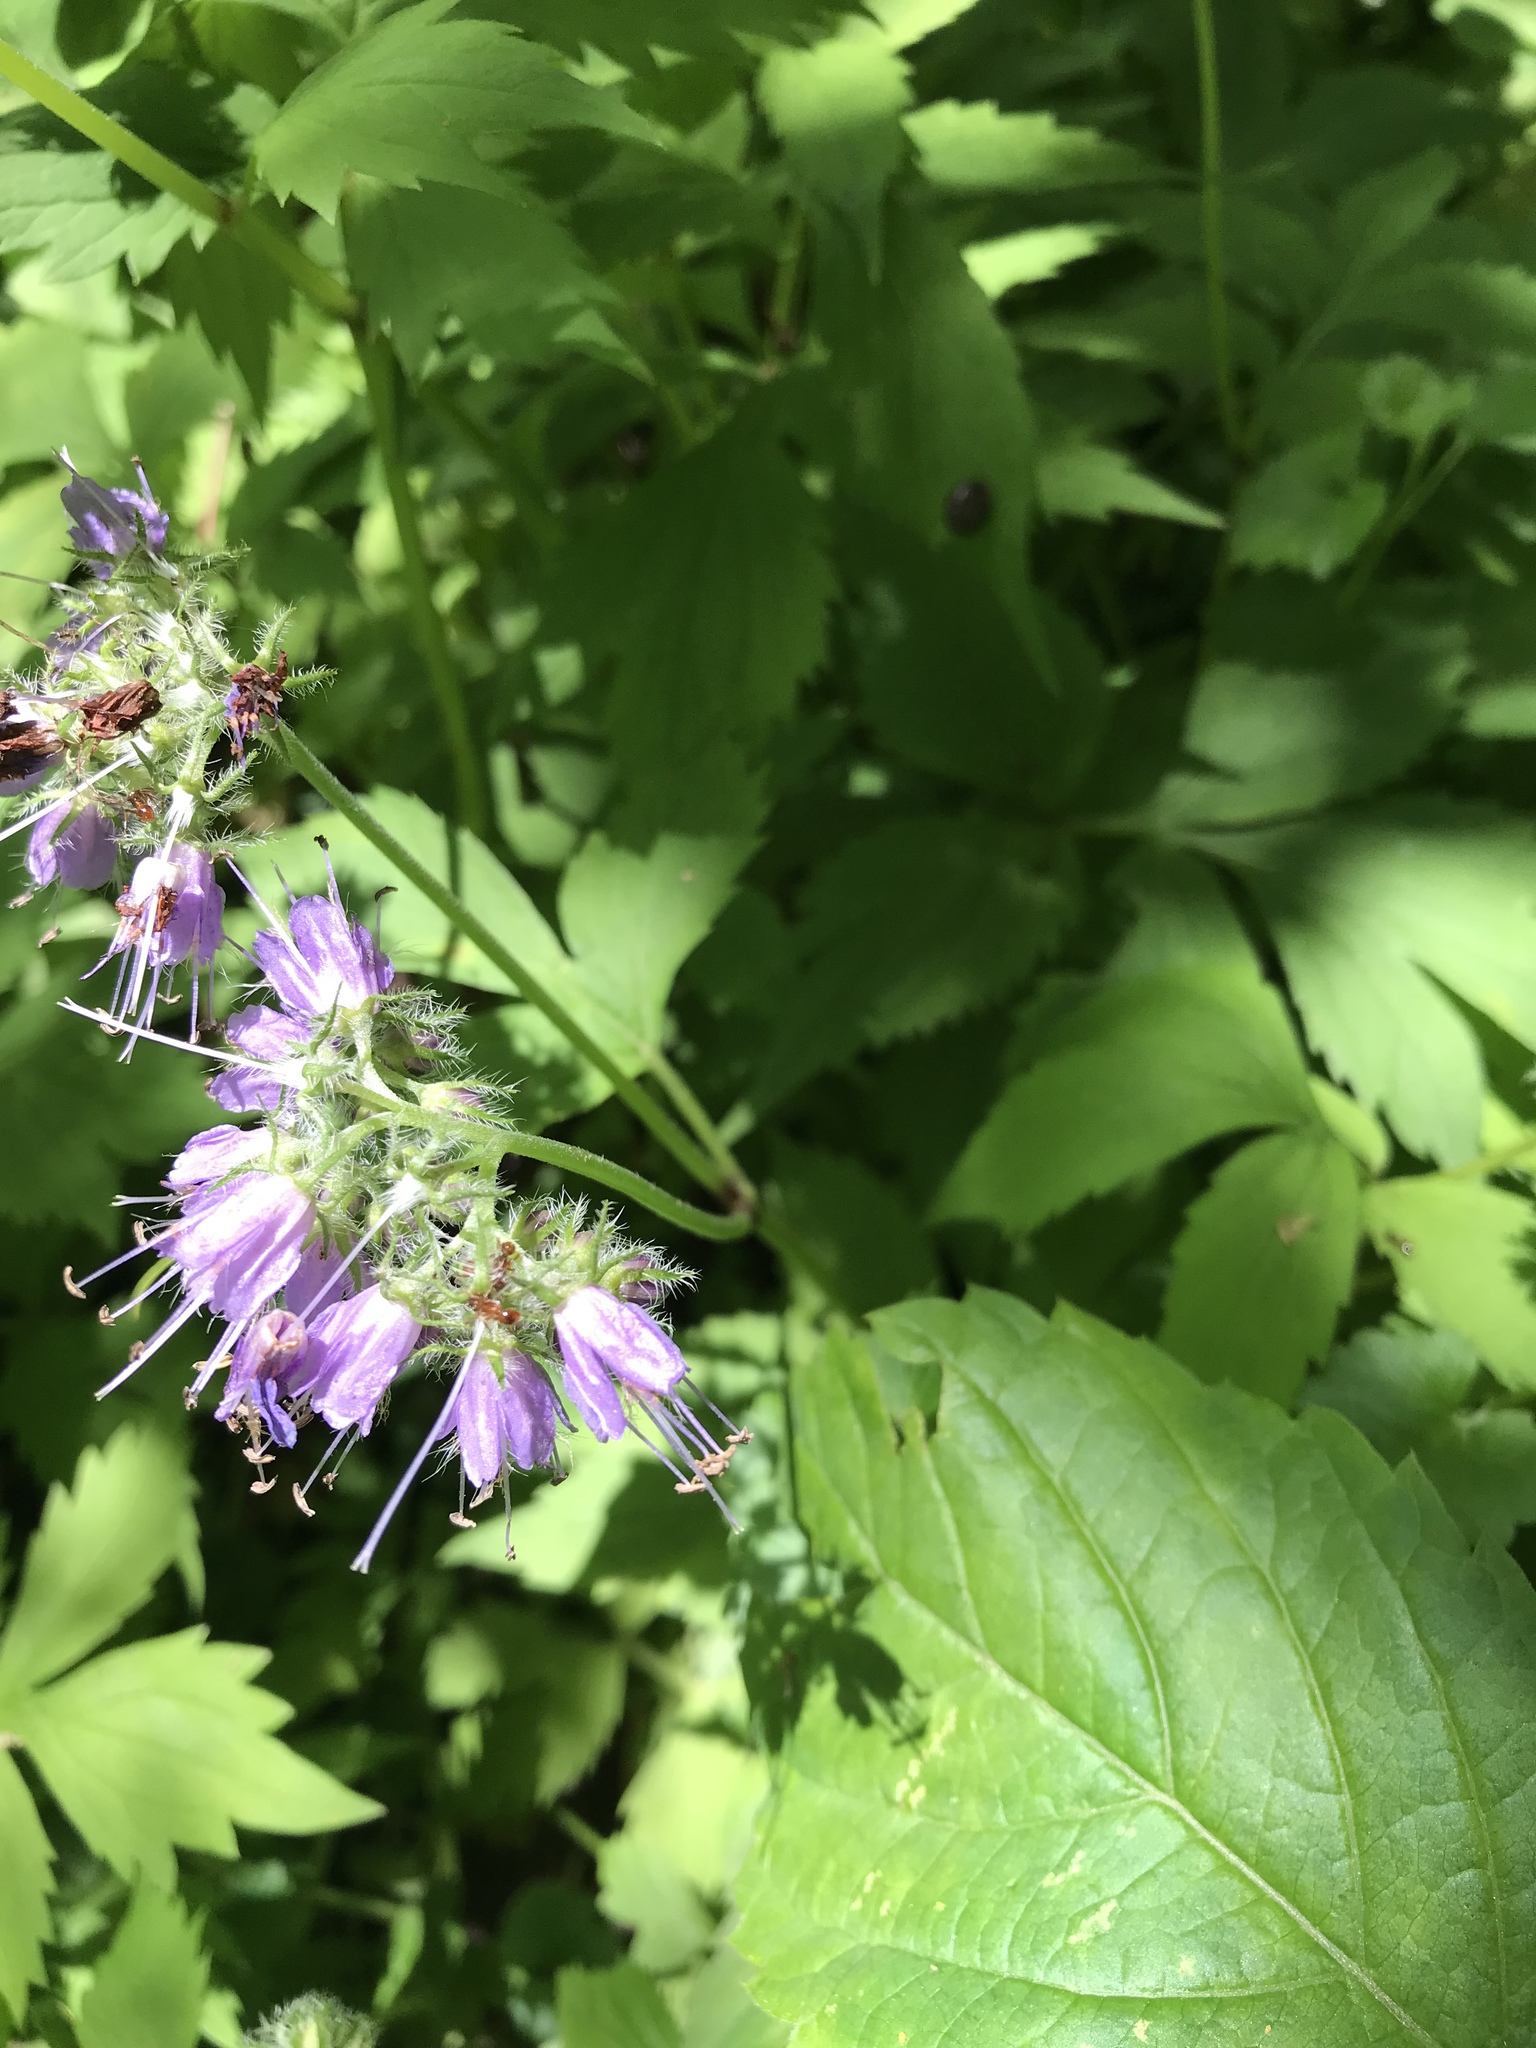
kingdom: Plantae
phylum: Tracheophyta
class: Magnoliopsida
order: Boraginales
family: Hydrophyllaceae
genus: Hydrophyllum
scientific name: Hydrophyllum virginianum
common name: Virginia waterleaf
